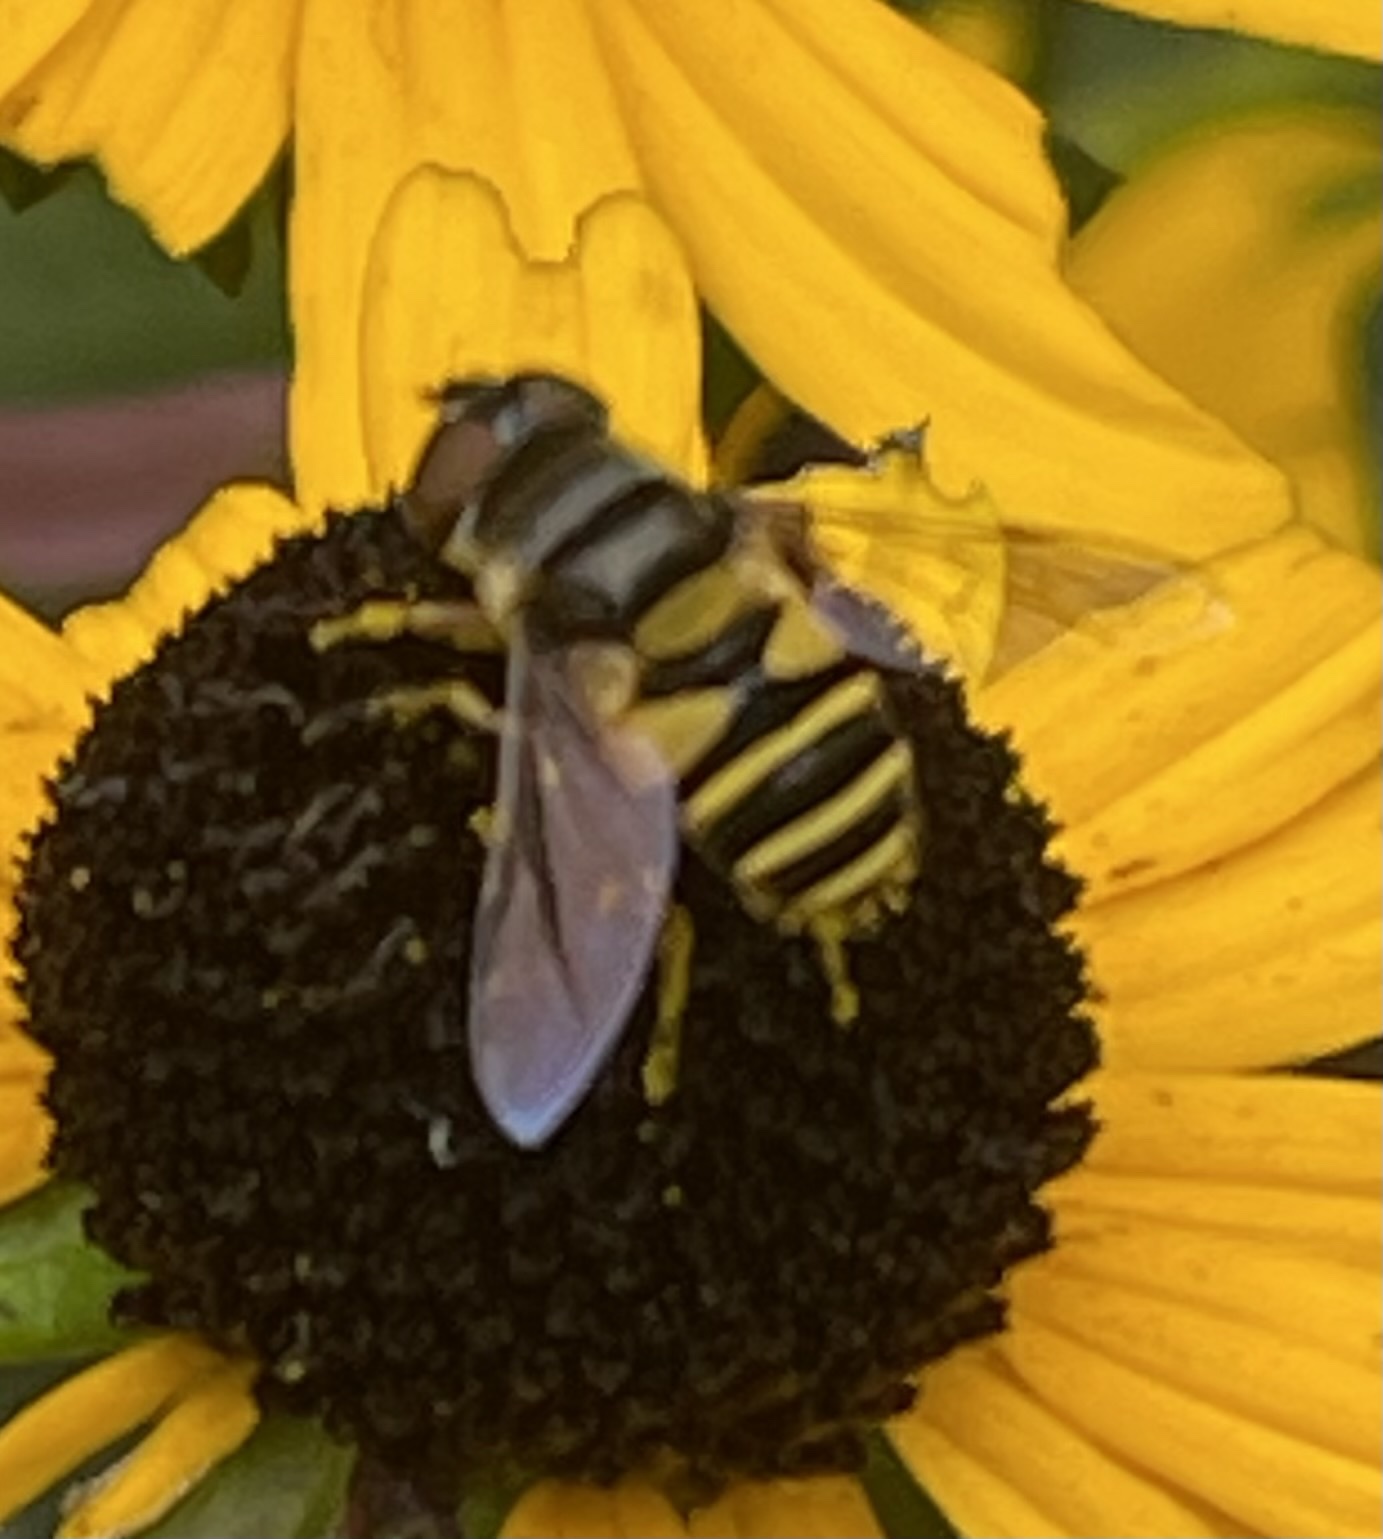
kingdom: Animalia
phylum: Arthropoda
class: Insecta
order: Diptera
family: Syrphidae
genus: Eristalis
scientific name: Eristalis transversa
